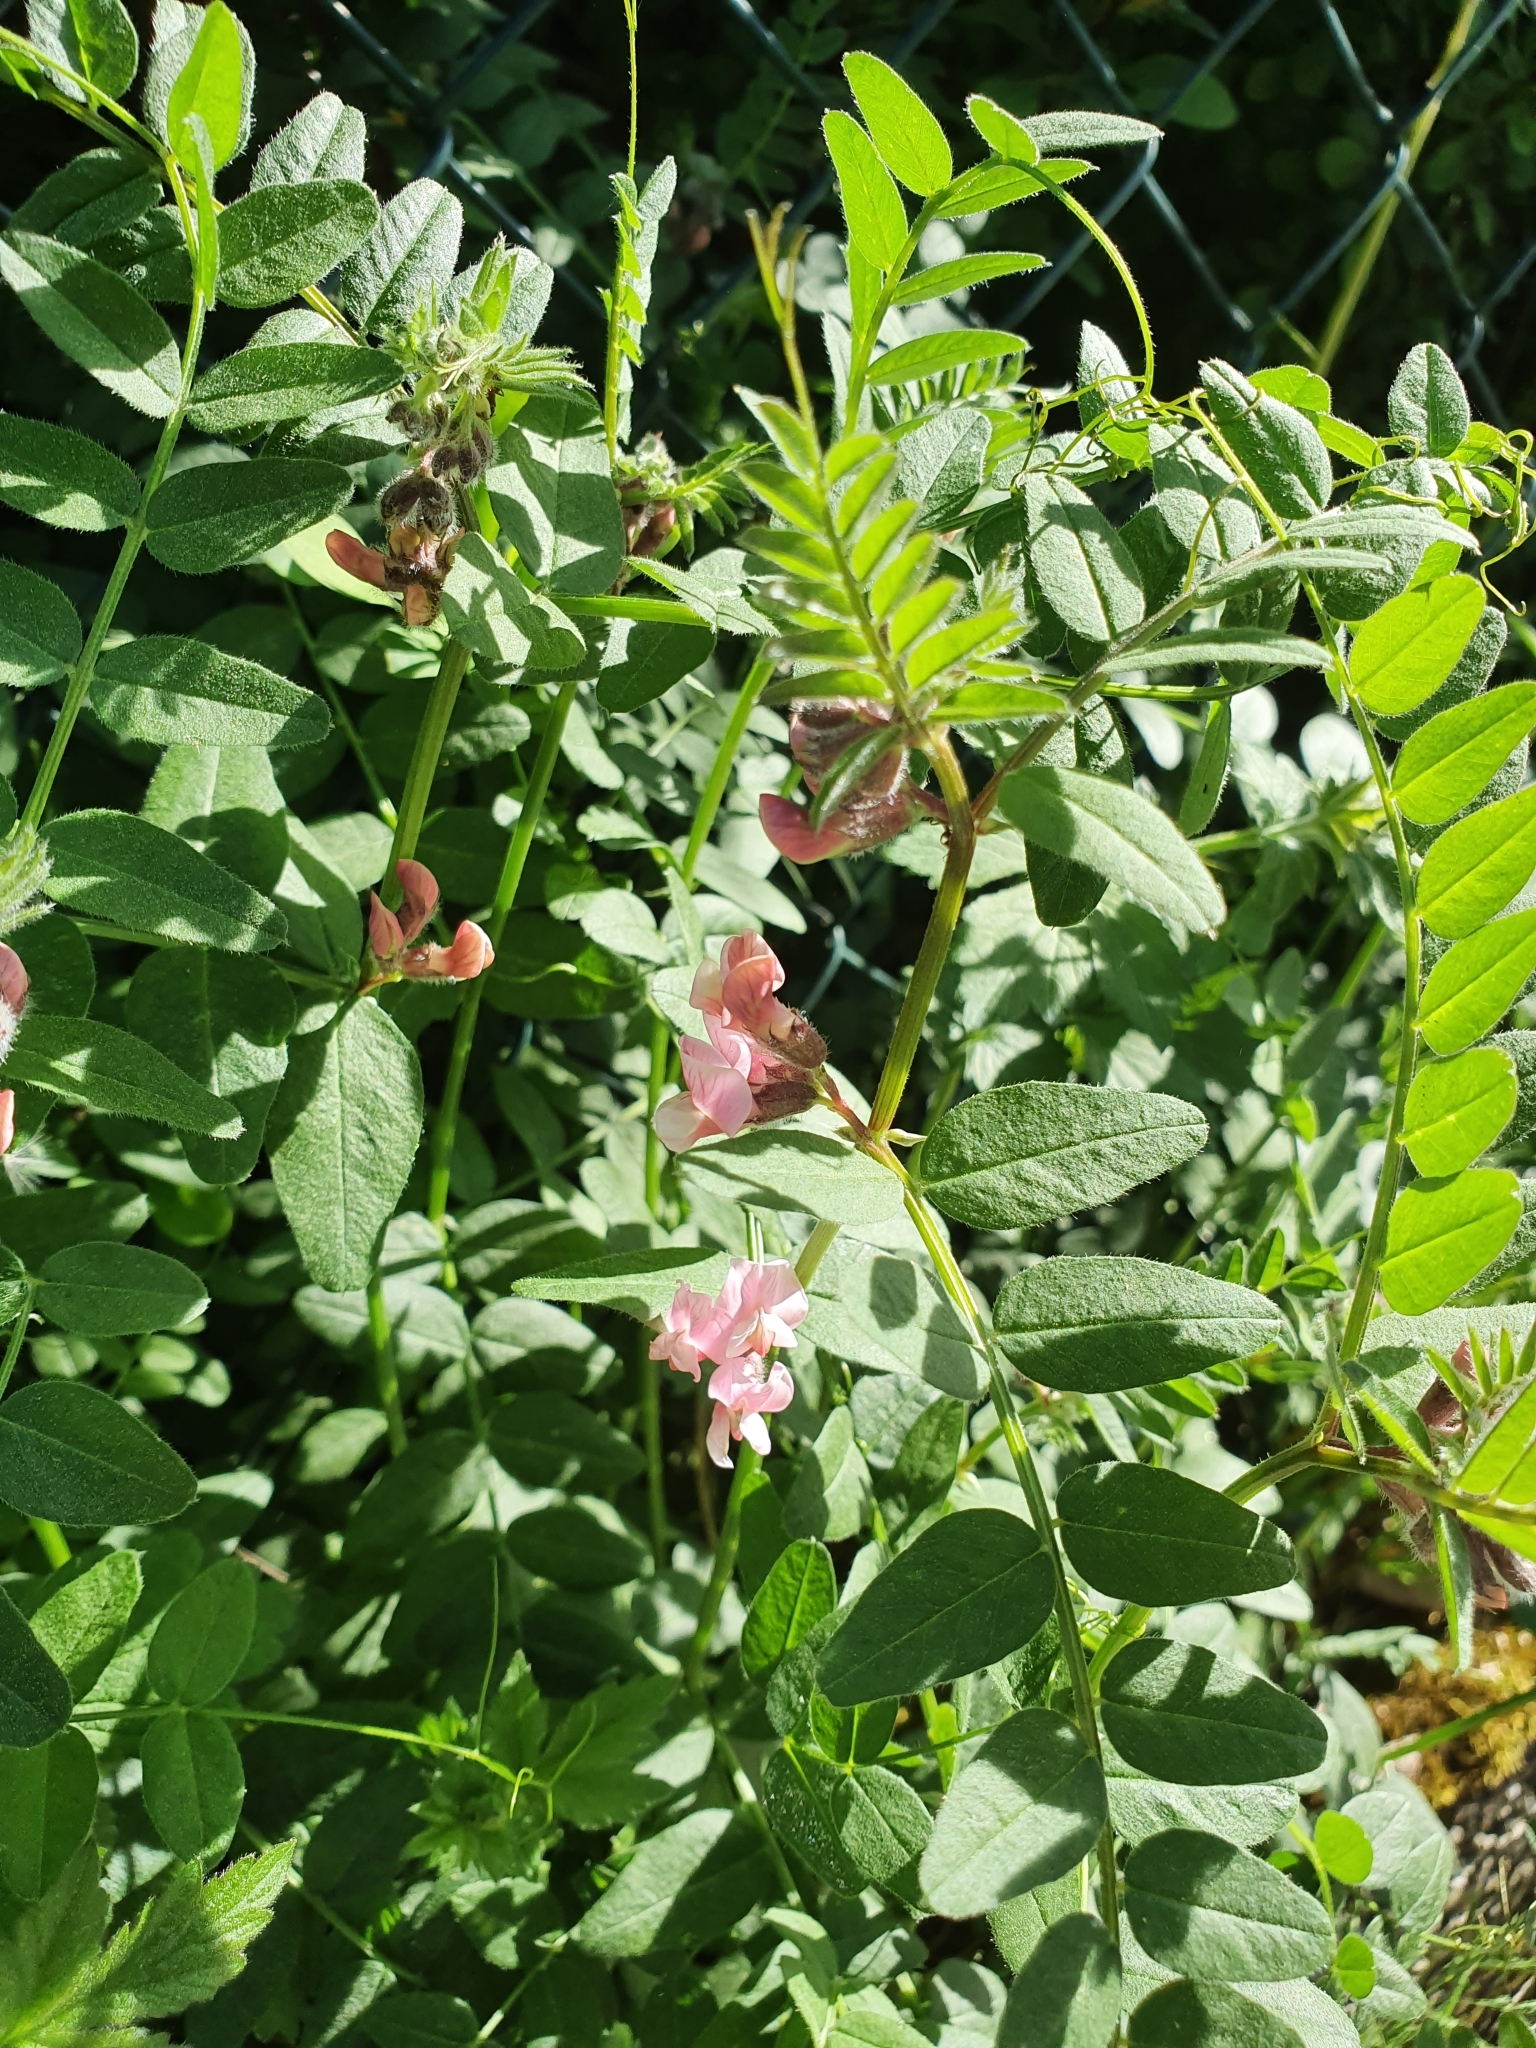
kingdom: Plantae
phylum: Tracheophyta
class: Magnoliopsida
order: Fabales
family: Fabaceae
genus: Vicia
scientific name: Vicia sepium
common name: Bush vetch
